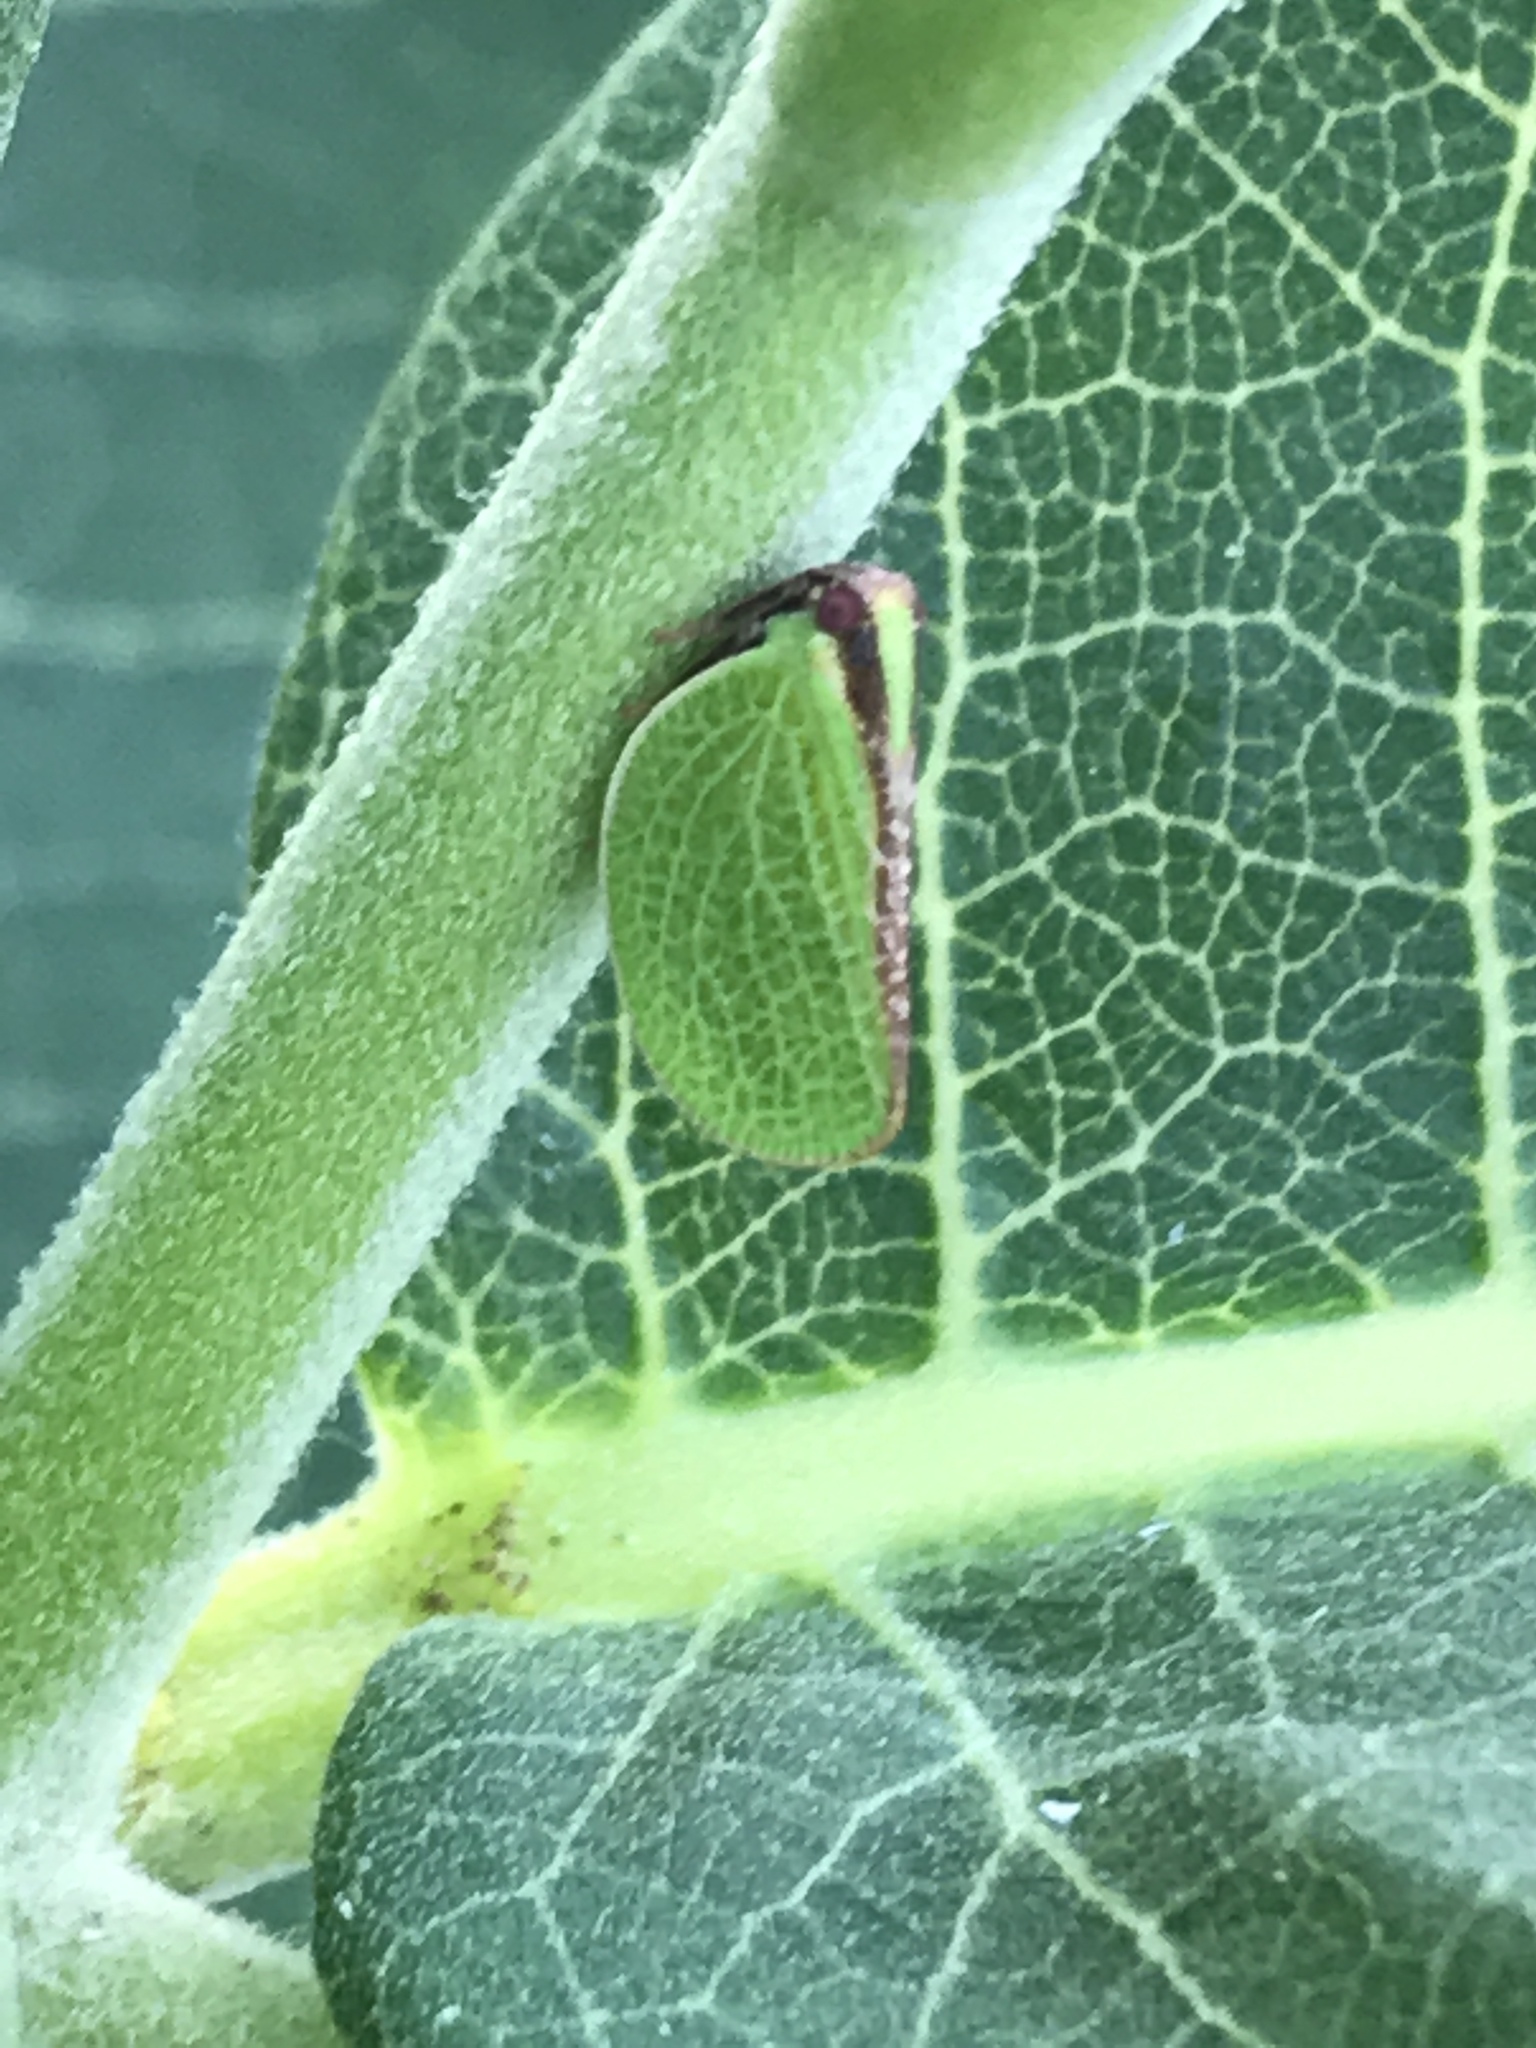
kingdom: Animalia
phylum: Arthropoda
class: Insecta
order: Hemiptera
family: Acanaloniidae
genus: Acanalonia
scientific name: Acanalonia bivittata
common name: Two-striped planthopper
